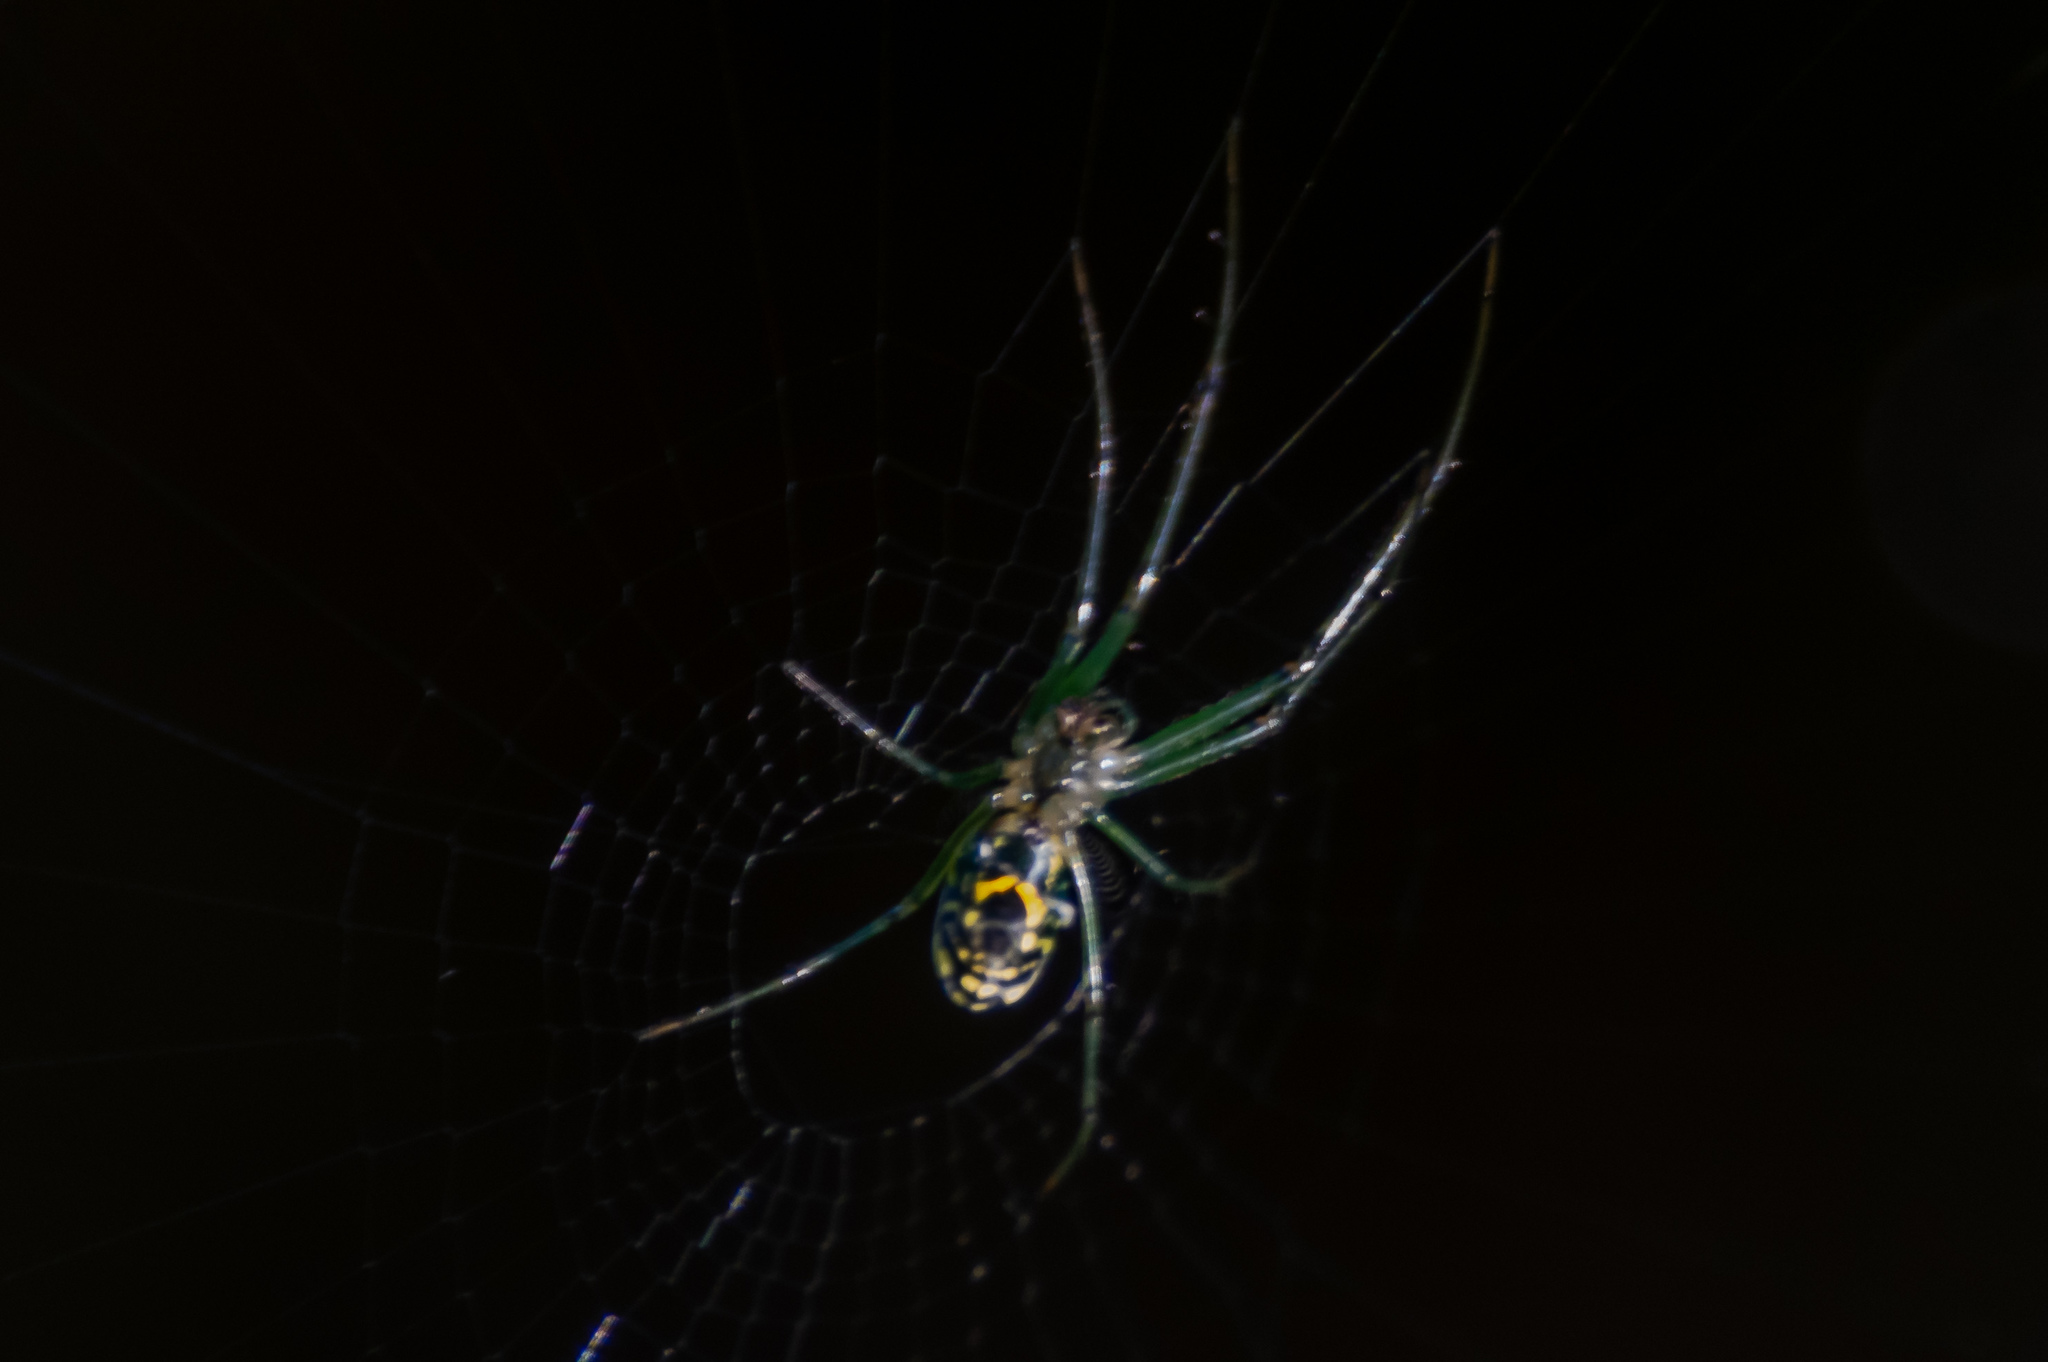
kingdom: Animalia
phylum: Arthropoda
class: Arachnida
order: Araneae
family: Tetragnathidae
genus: Leucauge
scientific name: Leucauge venusta
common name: Longjawed orb weavers
